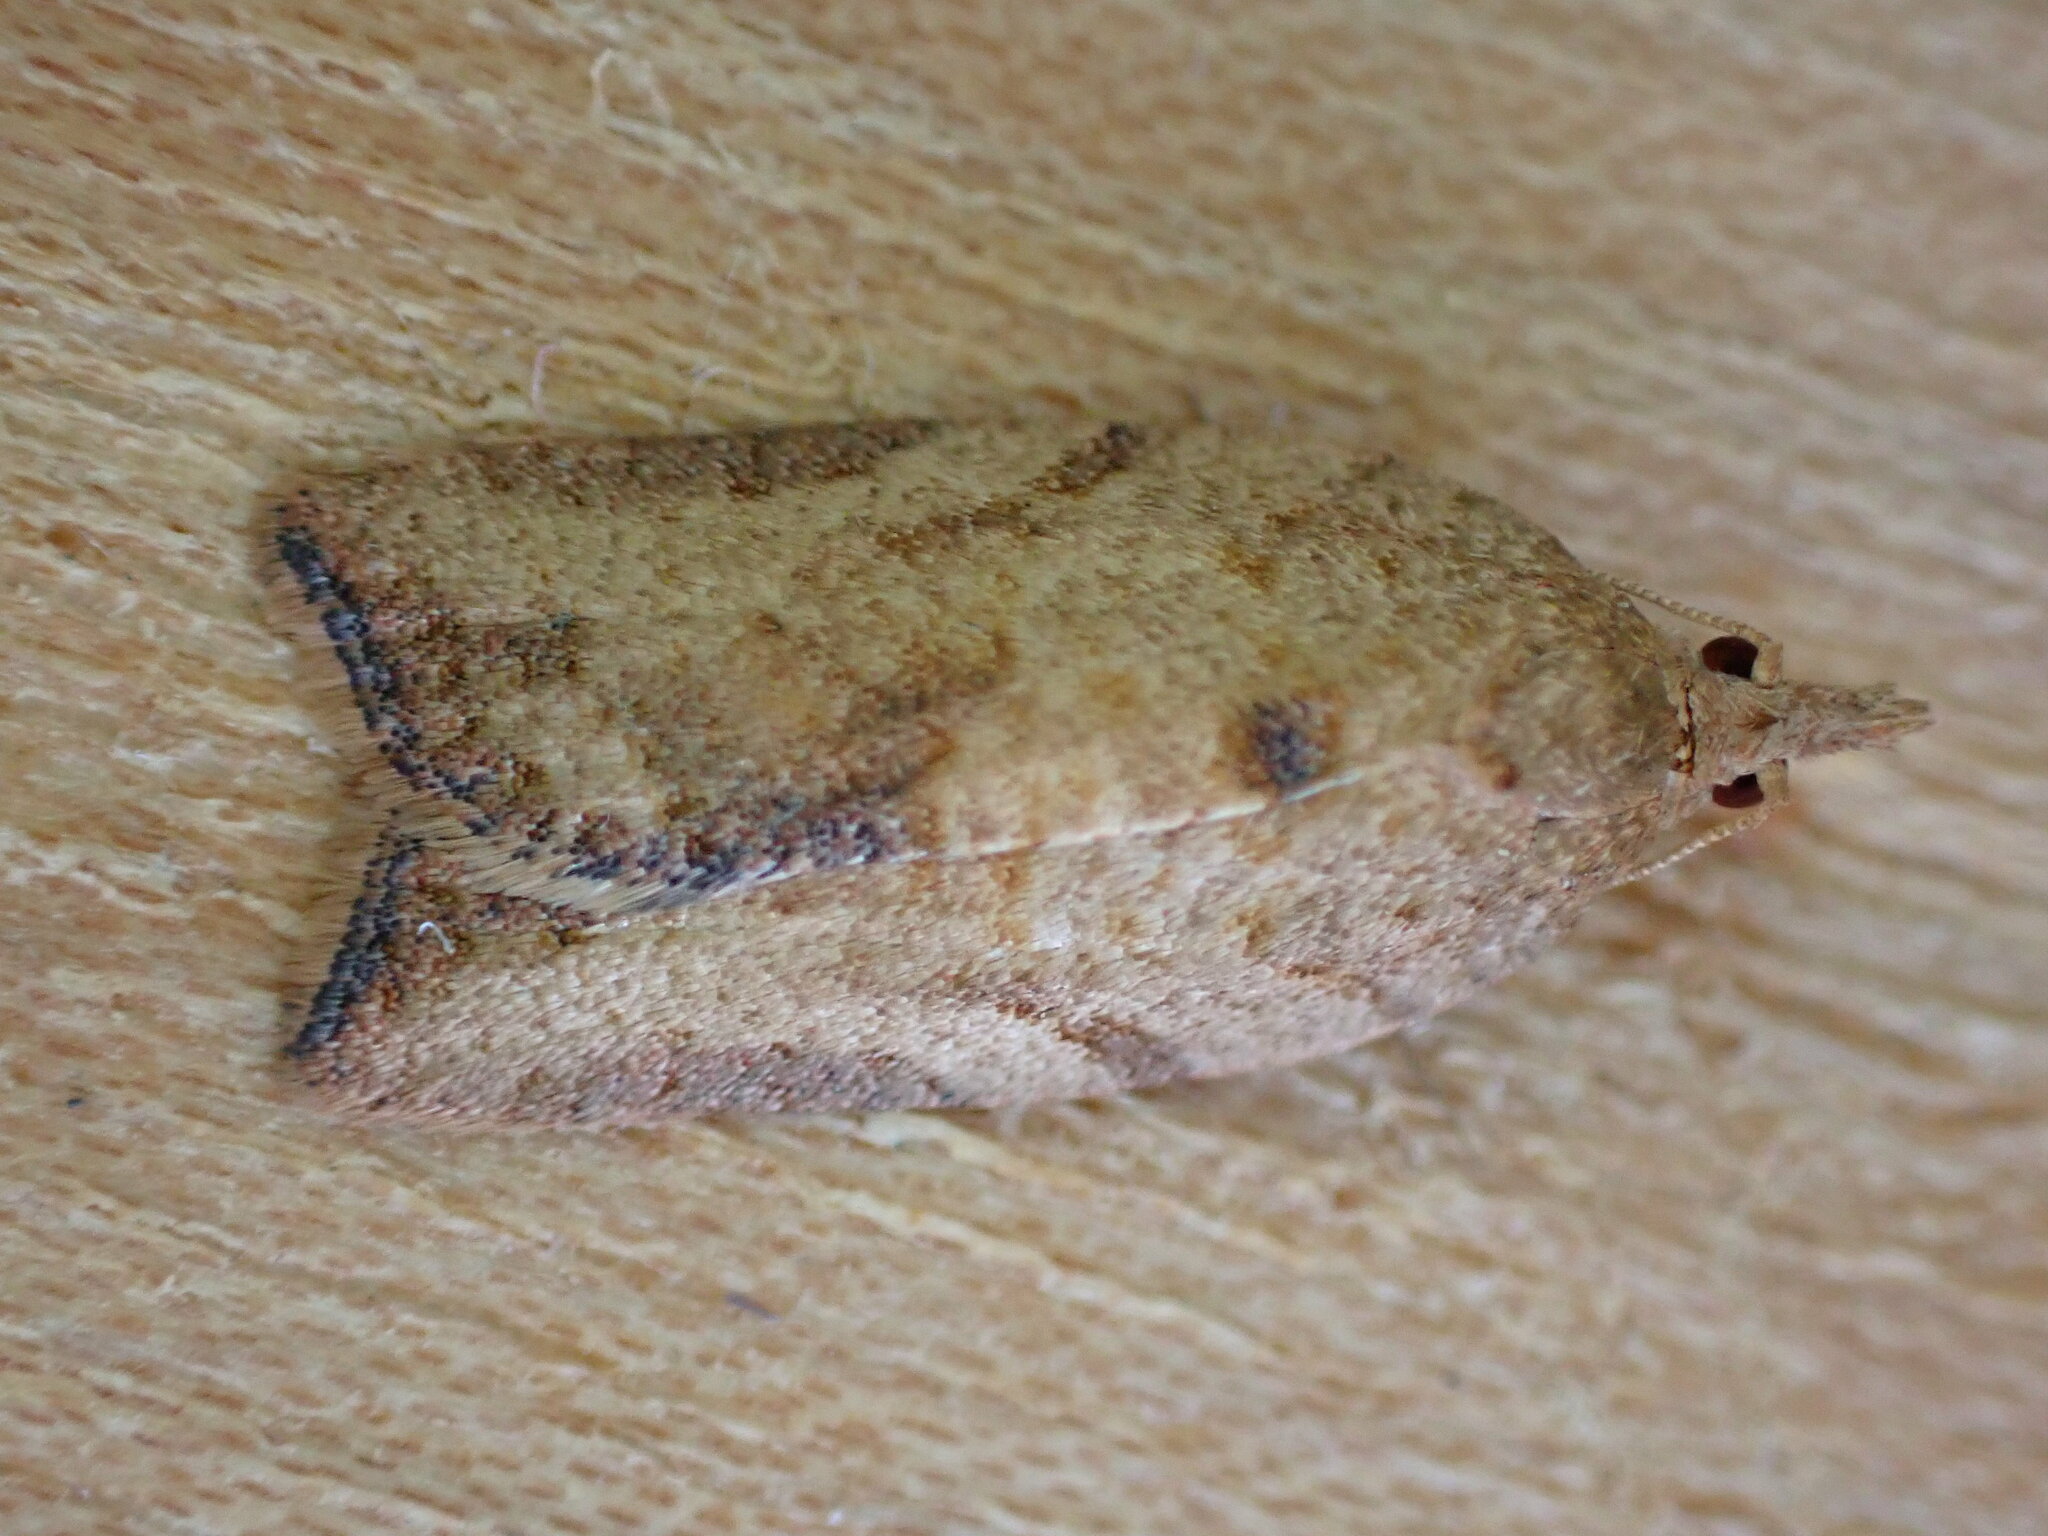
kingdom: Animalia
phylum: Arthropoda
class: Insecta
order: Lepidoptera
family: Tortricidae
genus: Epiphyas
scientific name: Epiphyas postvittana
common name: Light brown apple moth
